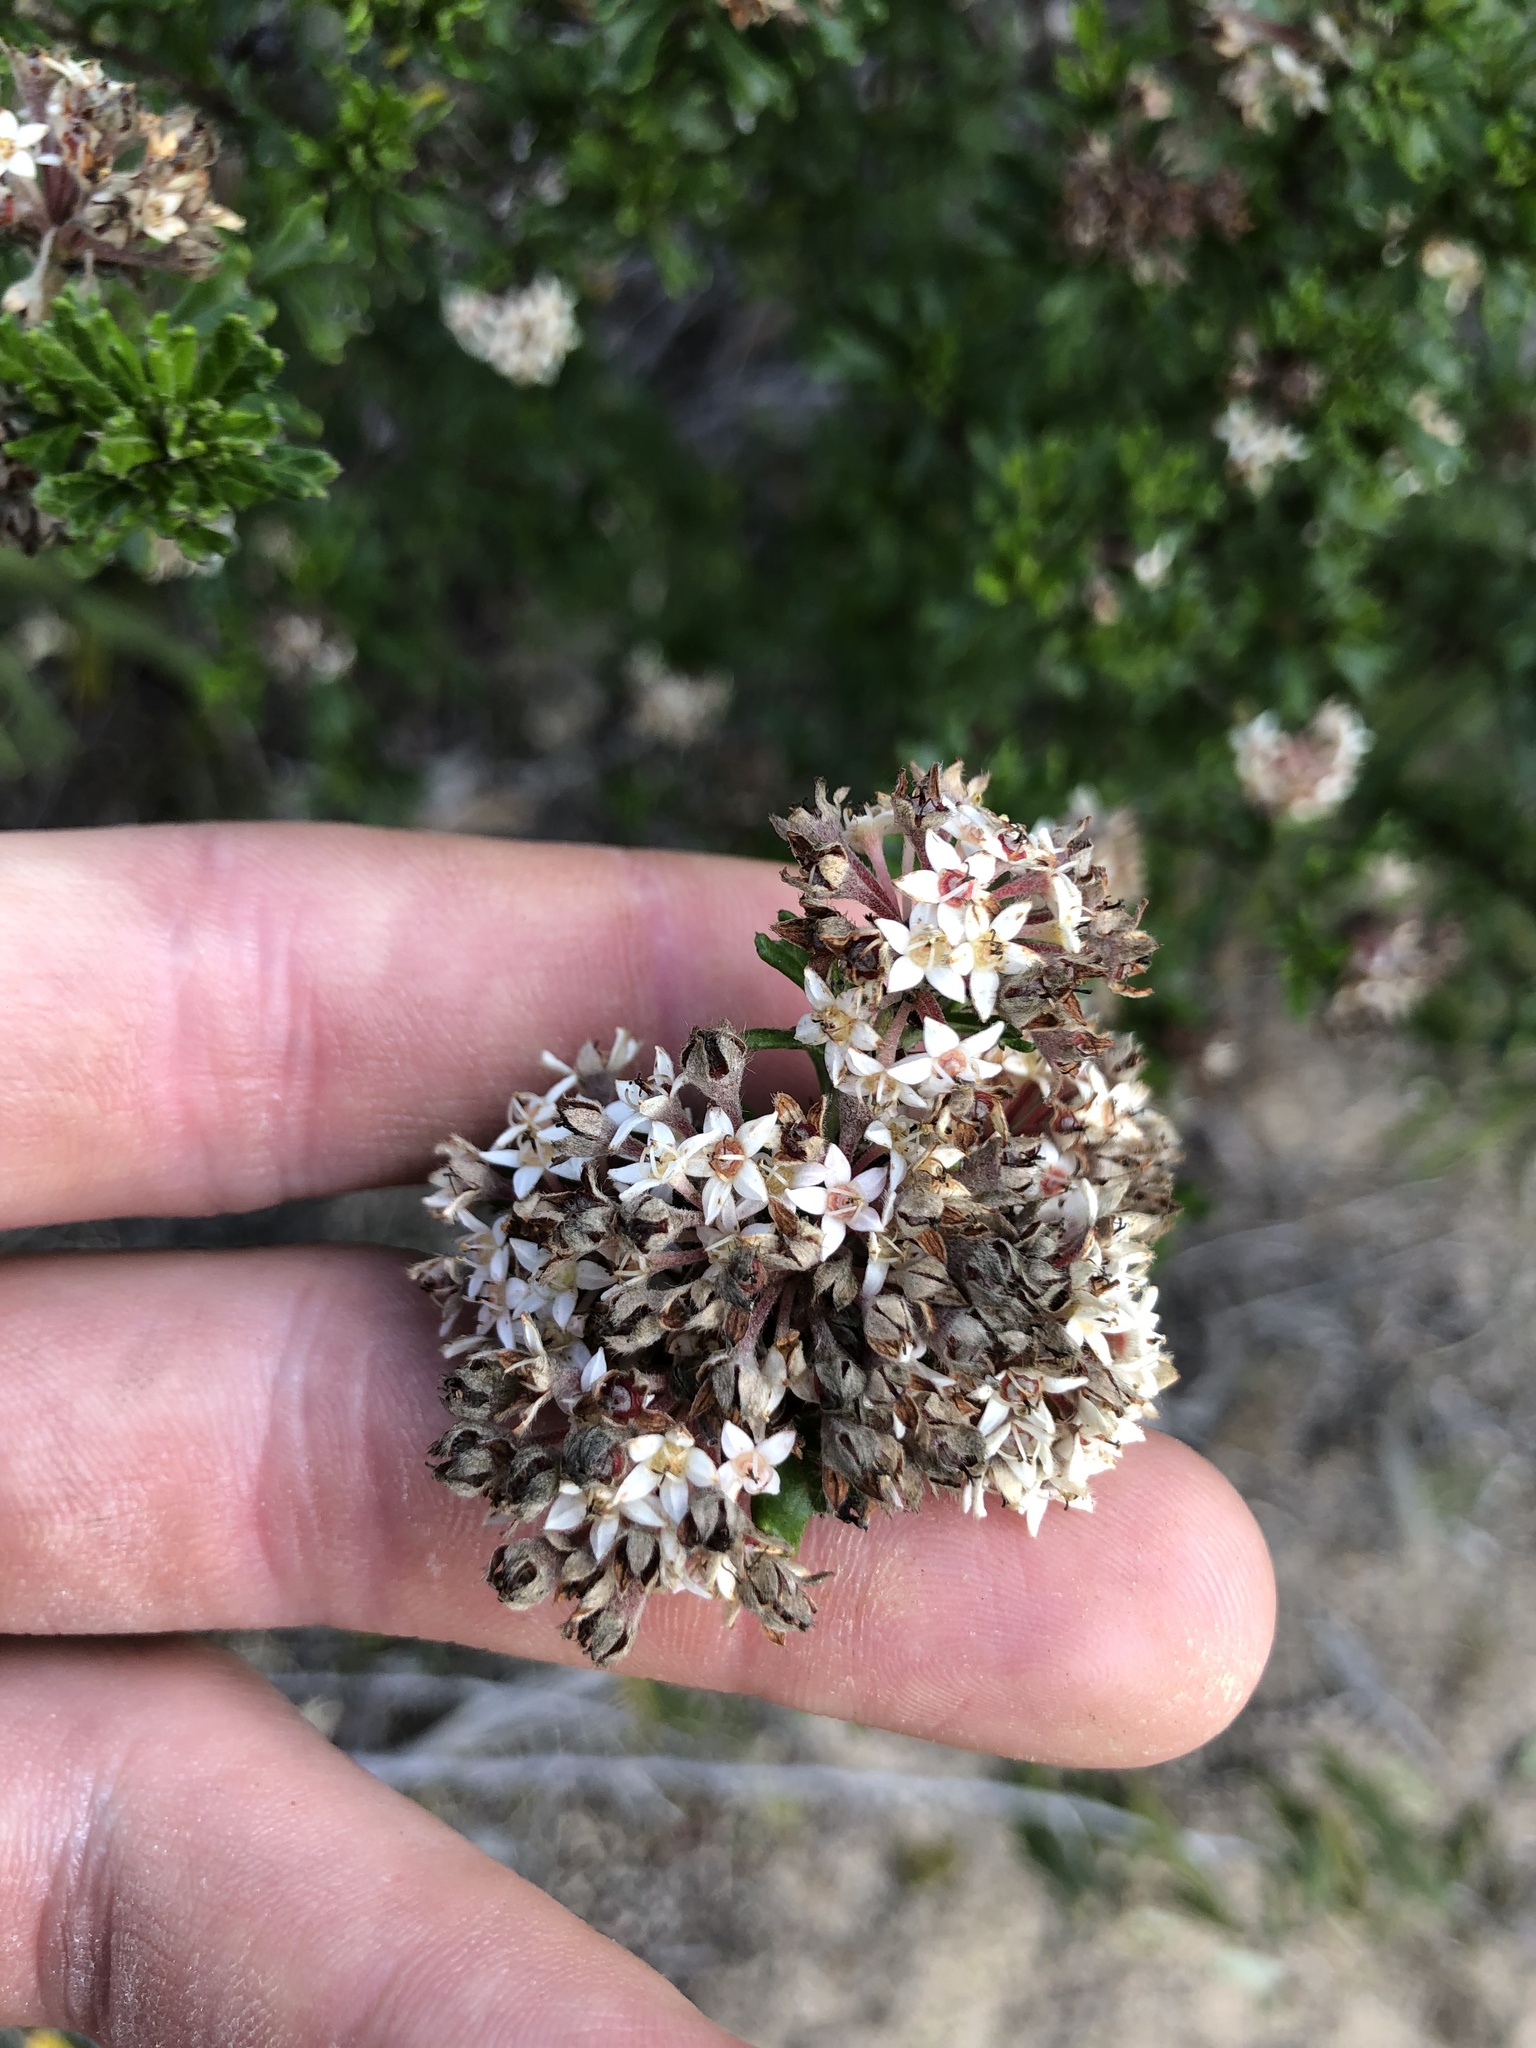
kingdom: Plantae
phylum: Tracheophyta
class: Magnoliopsida
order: Rosales
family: Rhamnaceae
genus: Pomaderris
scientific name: Pomaderris obcordata
